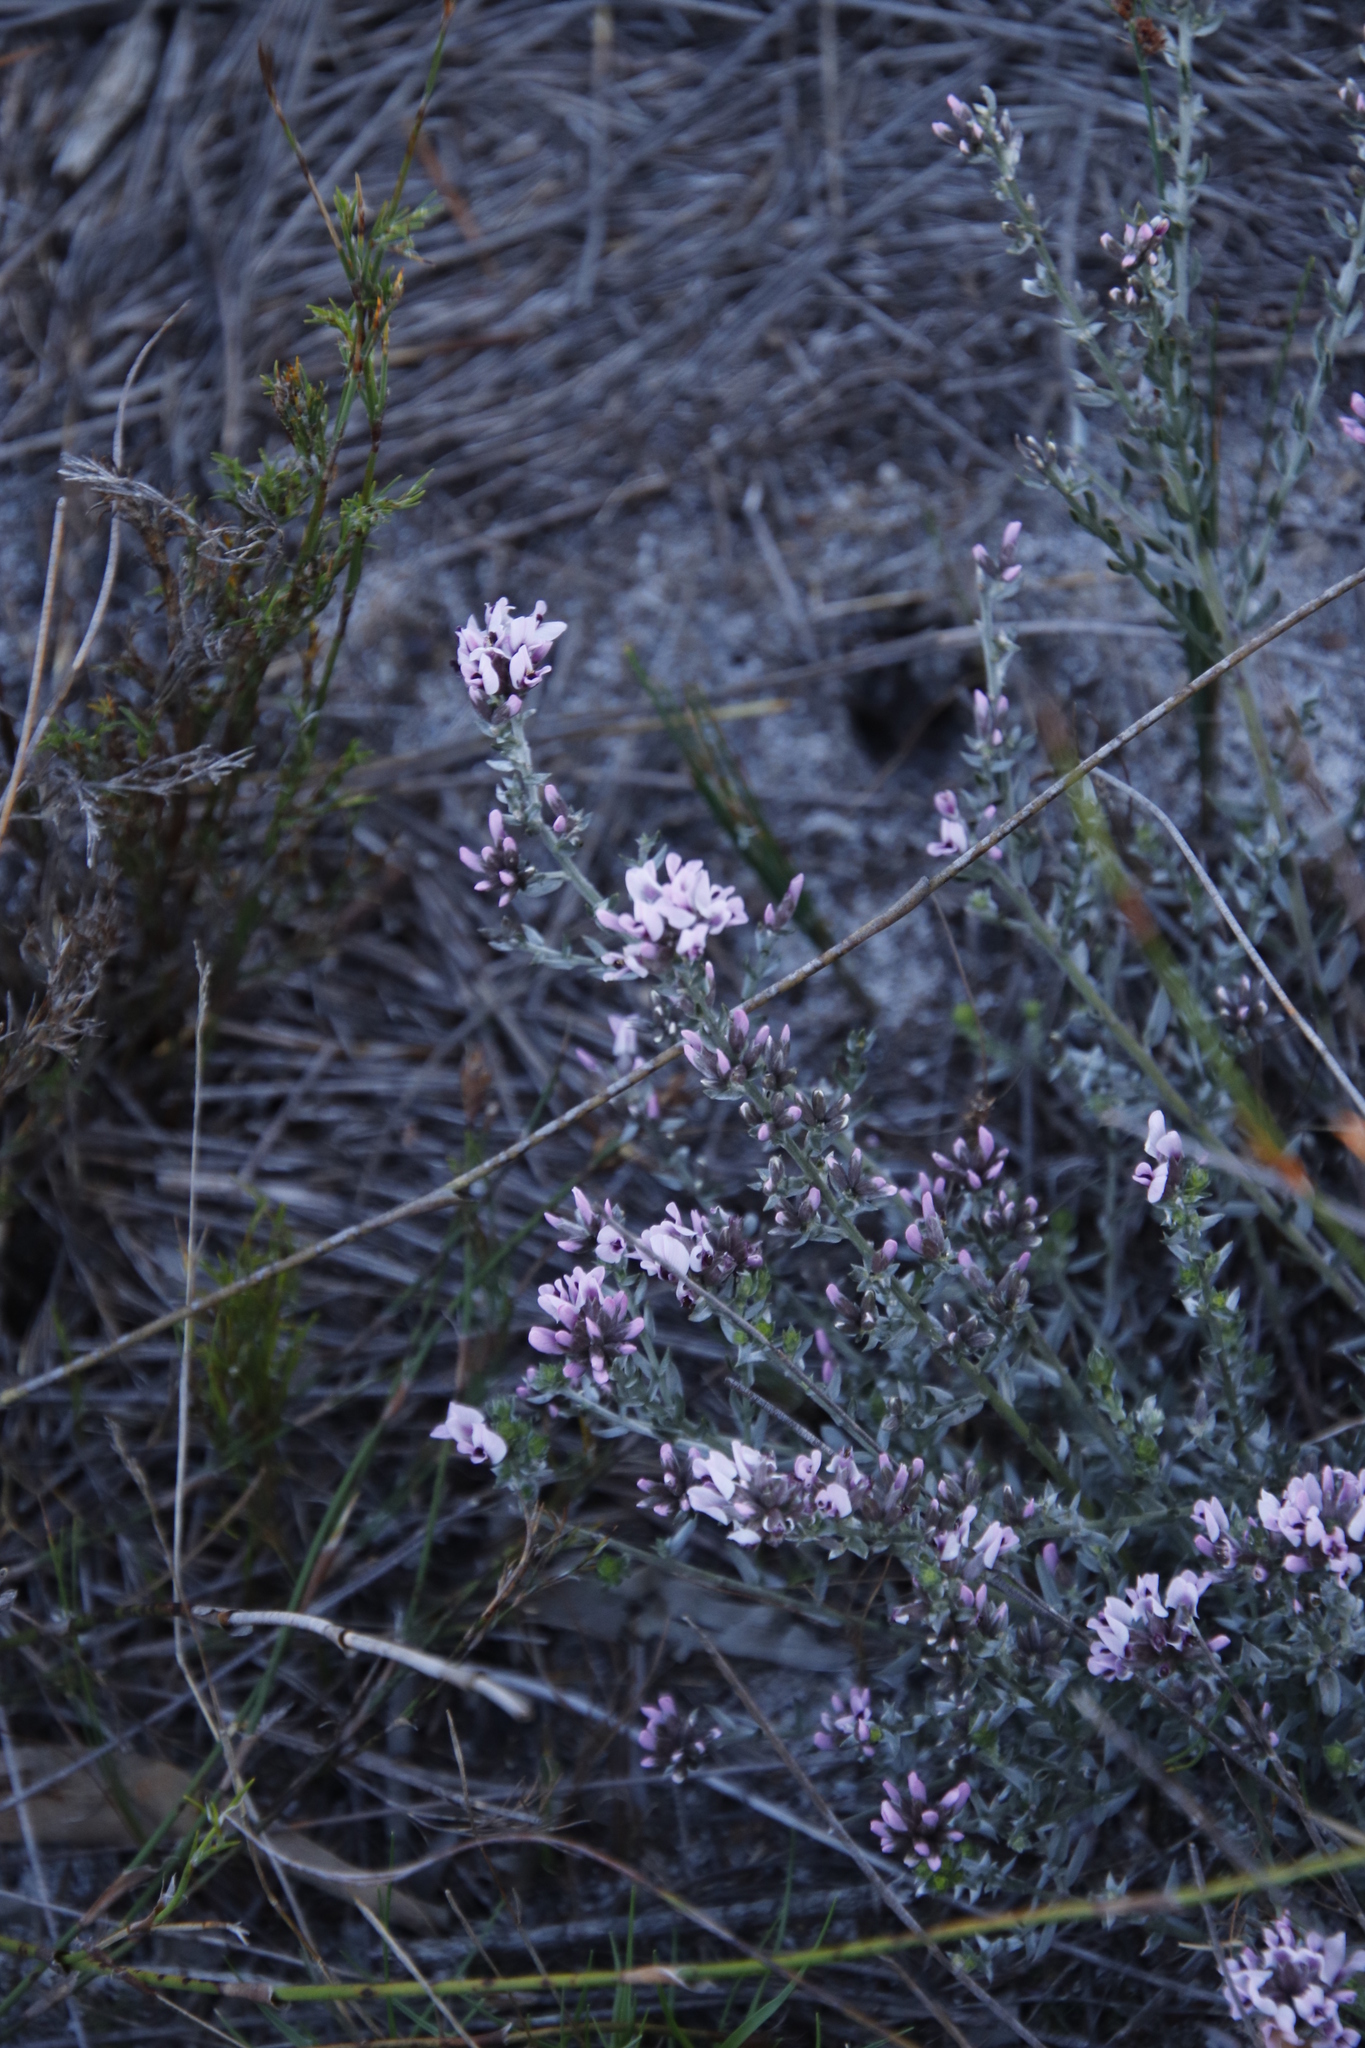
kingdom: Plantae
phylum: Tracheophyta
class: Magnoliopsida
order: Fabales
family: Fabaceae
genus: Amphithalea
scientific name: Amphithalea ericifolia
